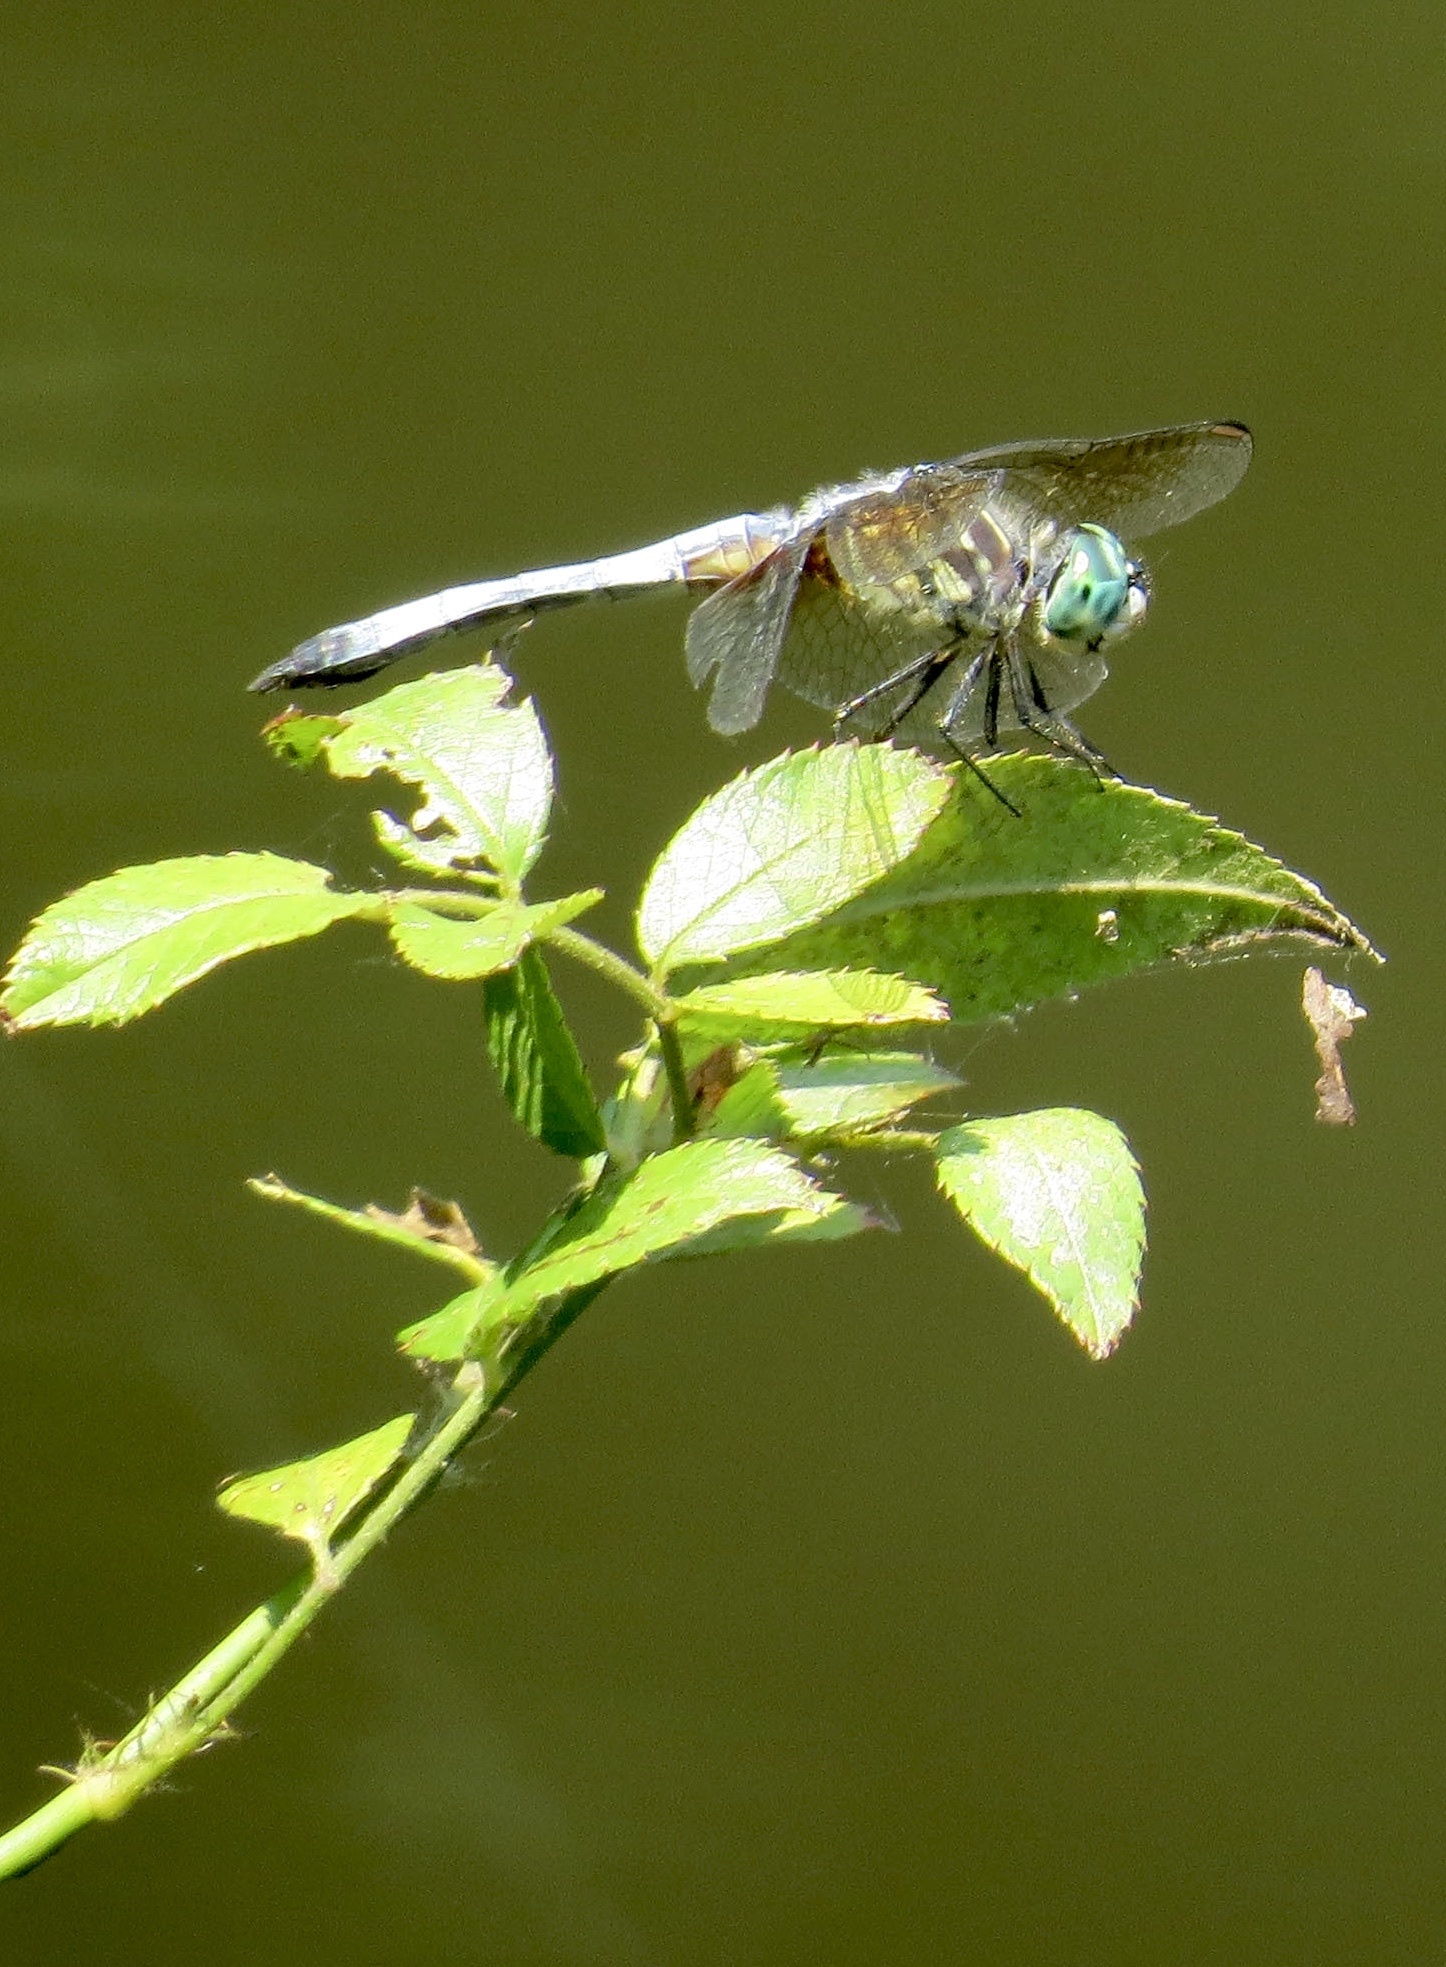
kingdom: Animalia
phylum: Arthropoda
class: Insecta
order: Odonata
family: Libellulidae
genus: Pachydiplax
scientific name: Pachydiplax longipennis
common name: Blue dasher
